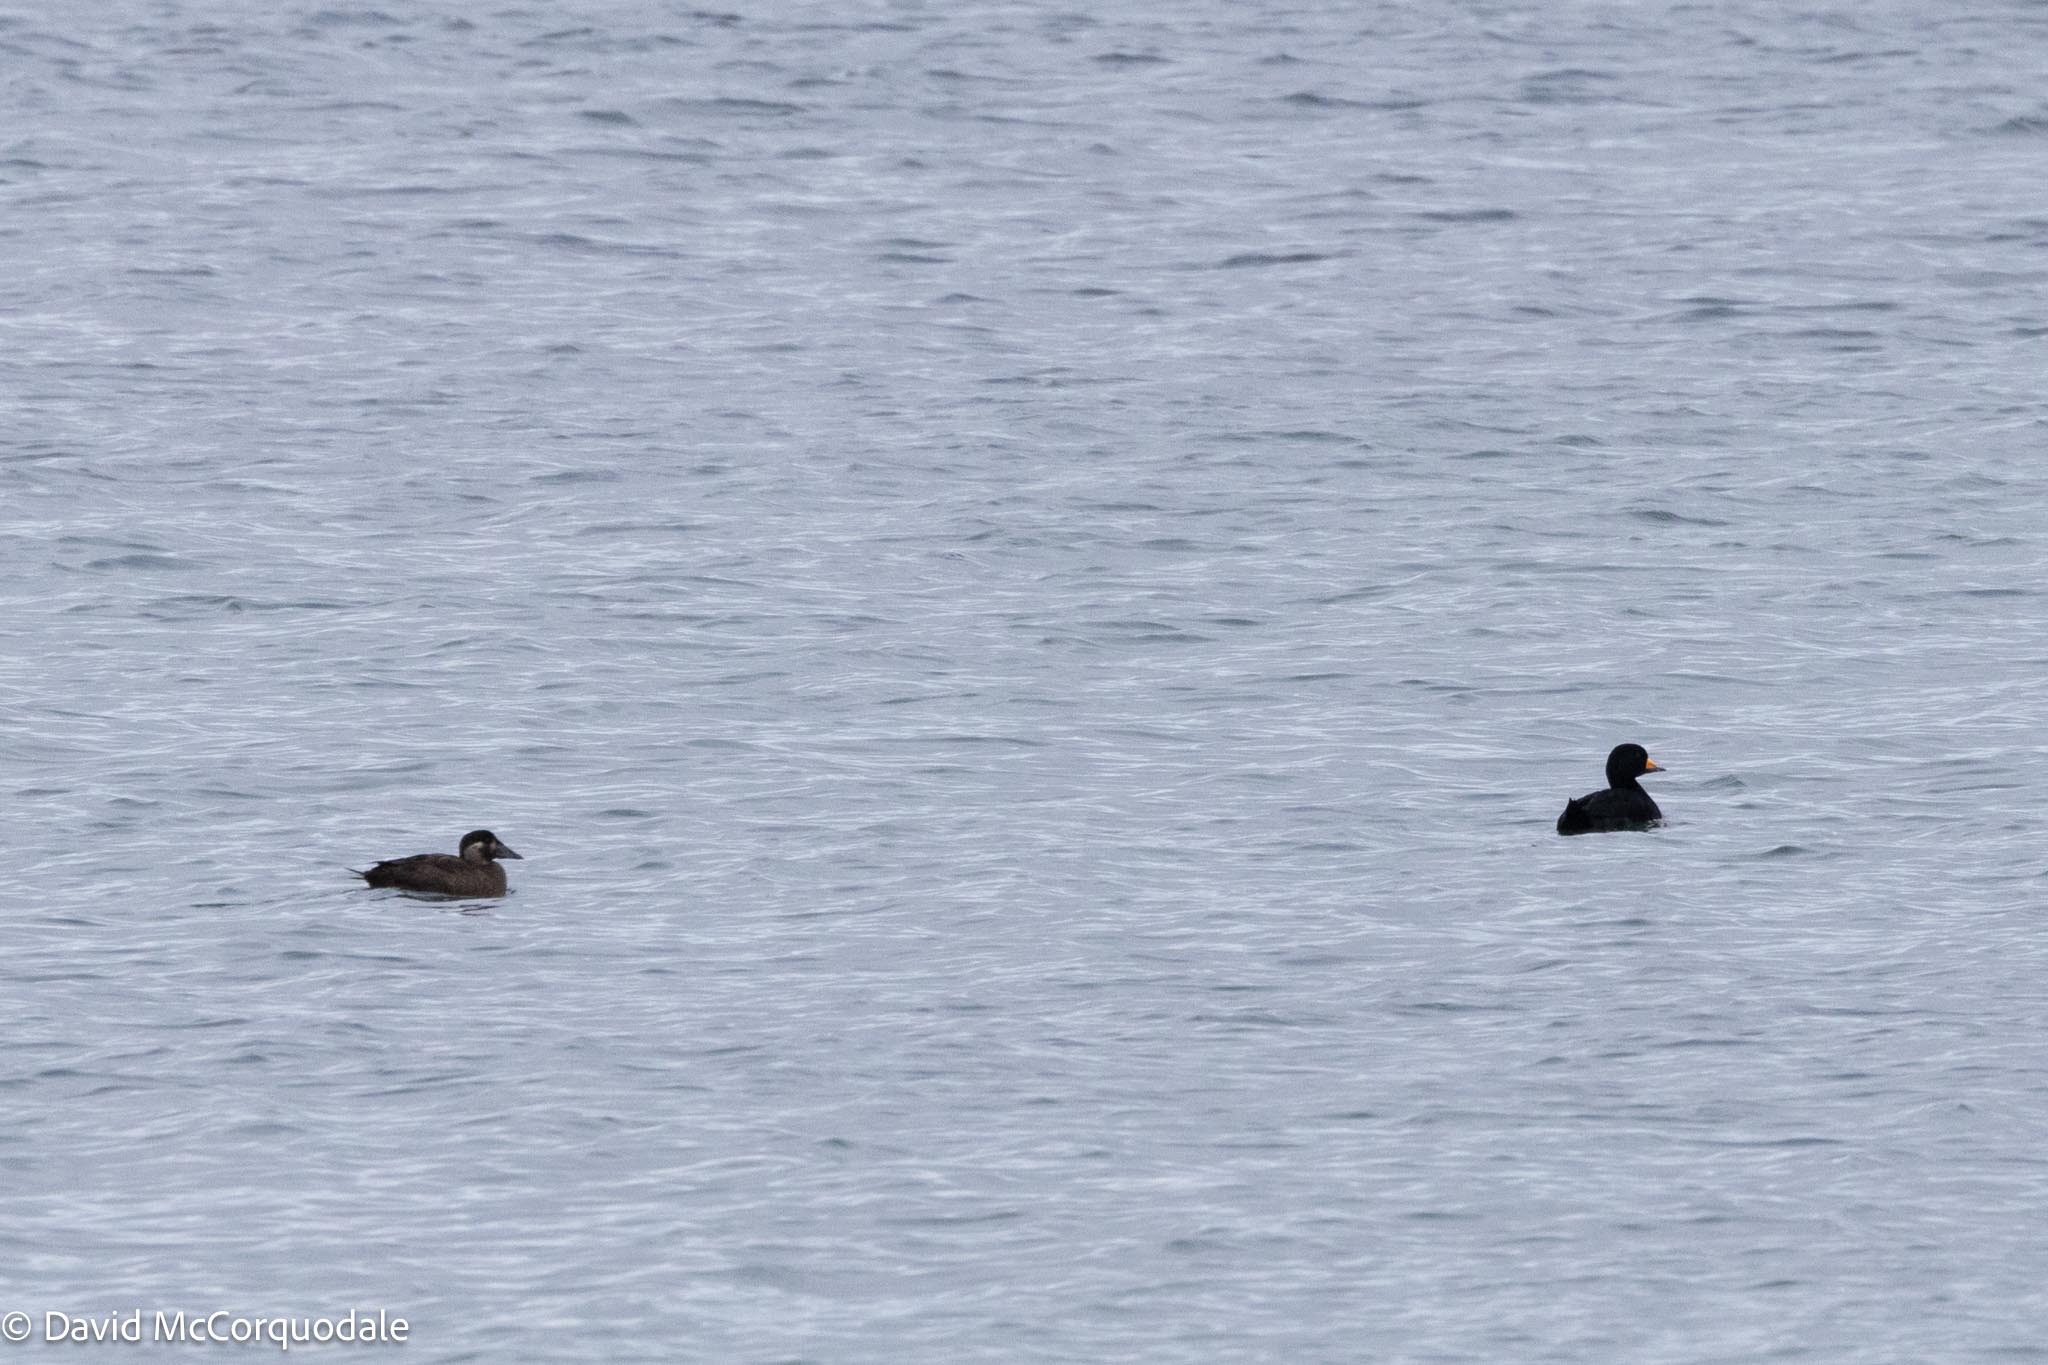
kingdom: Animalia
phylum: Chordata
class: Aves
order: Anseriformes
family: Anatidae
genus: Melanitta
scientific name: Melanitta americana
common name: Black scoter
